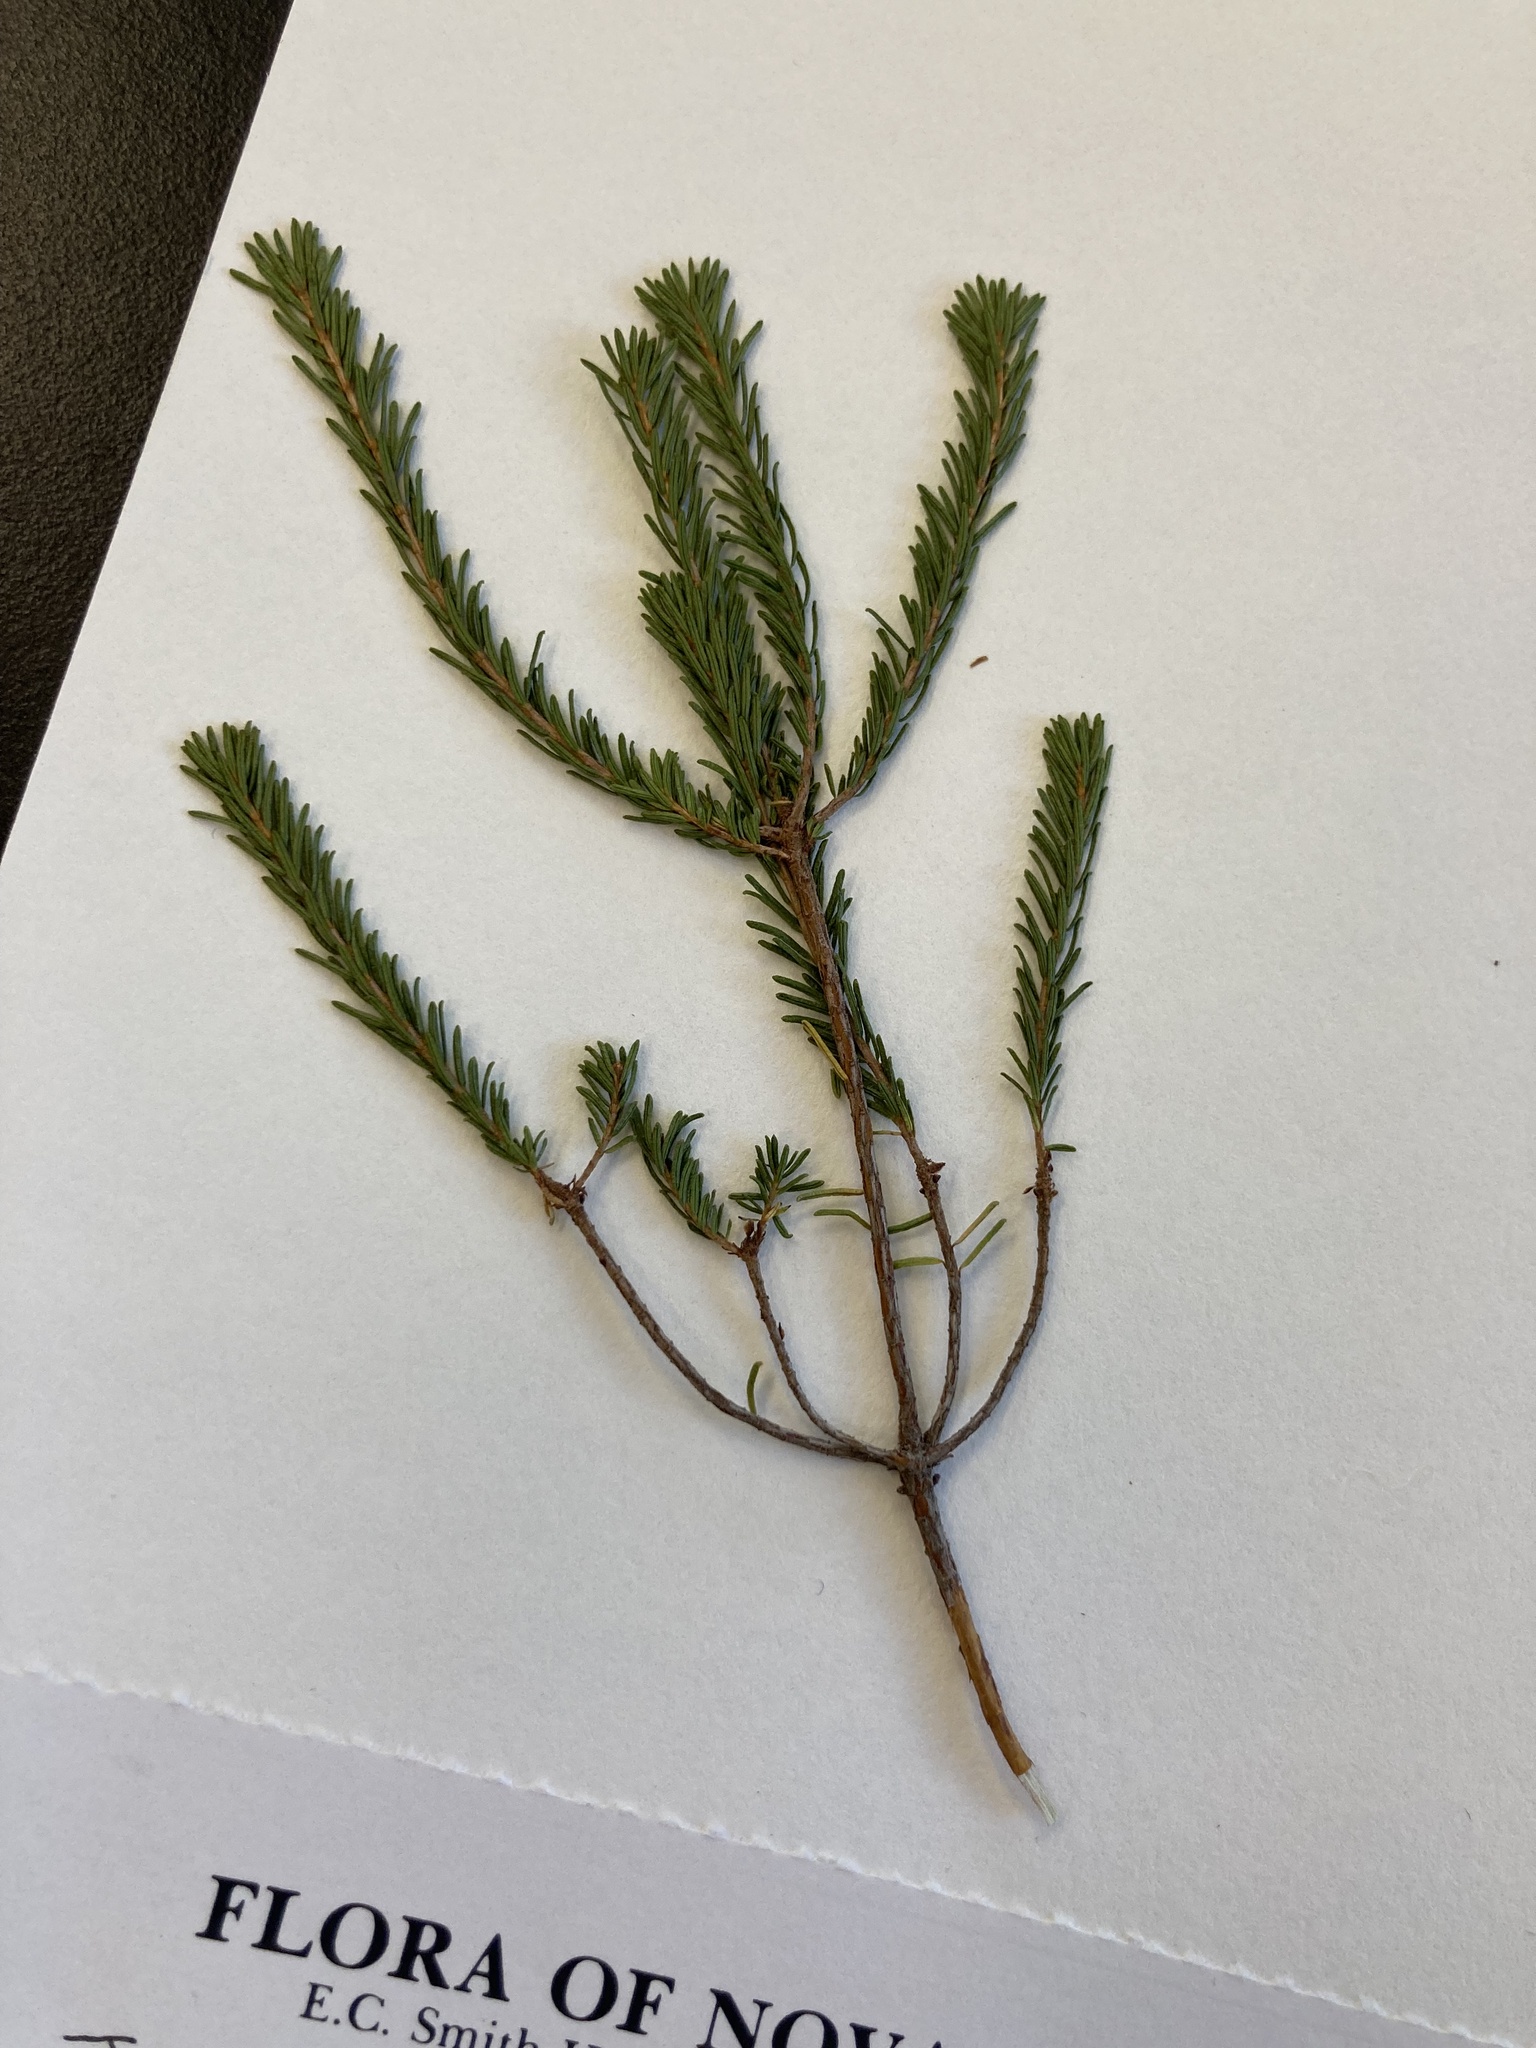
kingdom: Plantae
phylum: Tracheophyta
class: Magnoliopsida
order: Ericales
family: Ericaceae
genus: Corema
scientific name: Corema conradii
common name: Broom-crowberry
